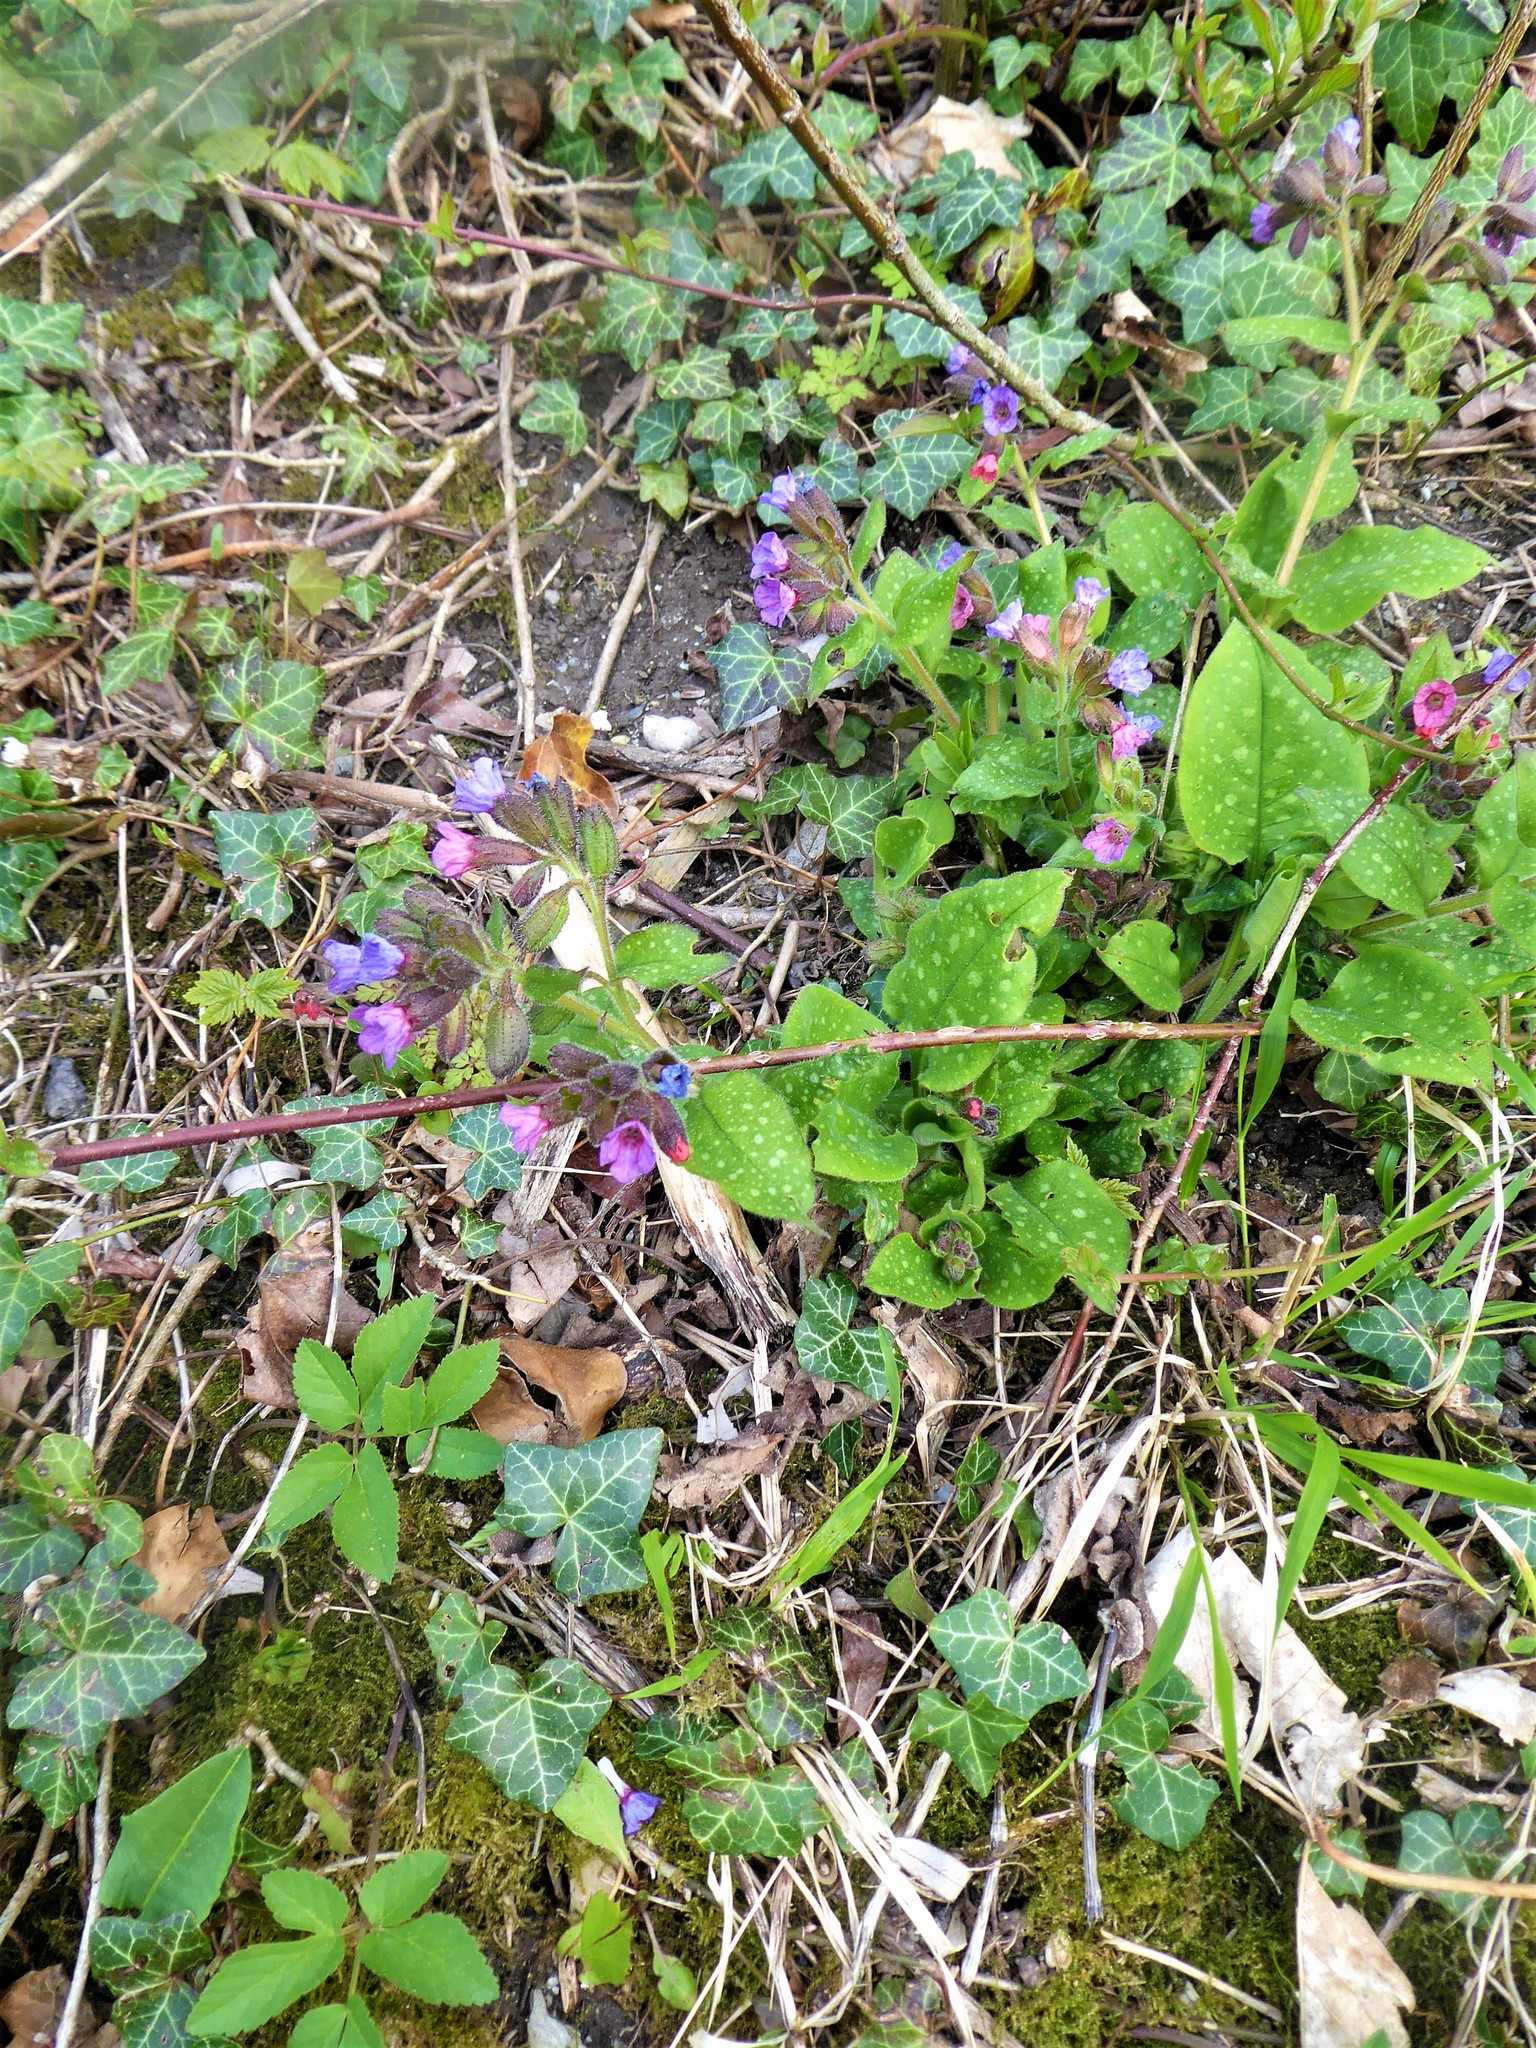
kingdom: Plantae
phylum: Tracheophyta
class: Magnoliopsida
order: Boraginales
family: Boraginaceae
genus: Pulmonaria
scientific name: Pulmonaria officinalis
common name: Lungwort
